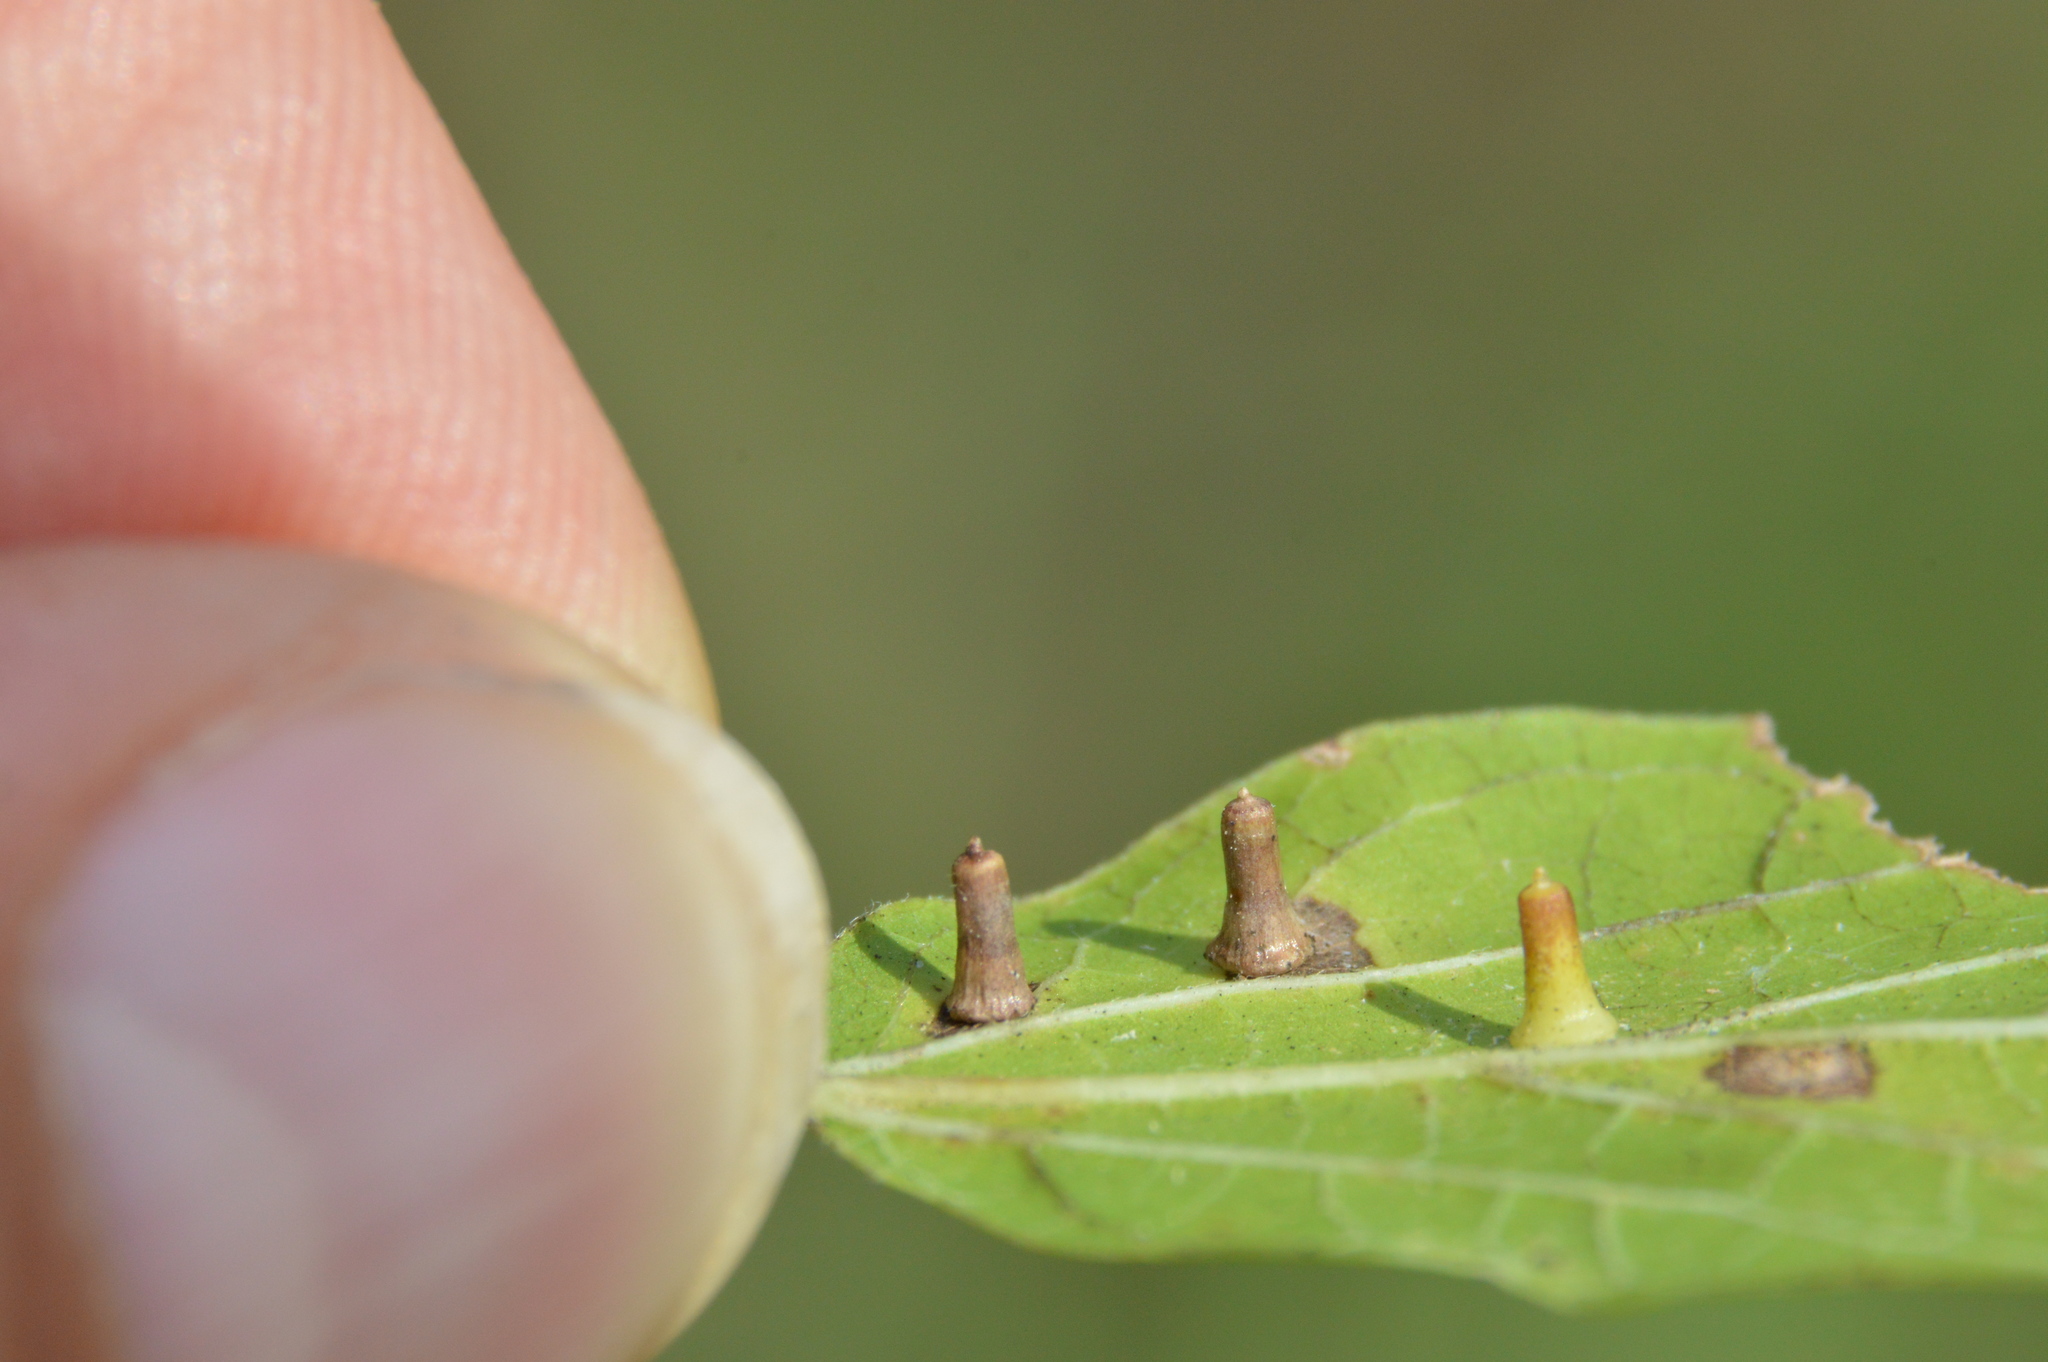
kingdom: Animalia
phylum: Arthropoda
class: Insecta
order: Diptera
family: Cecidomyiidae
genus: Celticecis
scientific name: Celticecis aciculata
